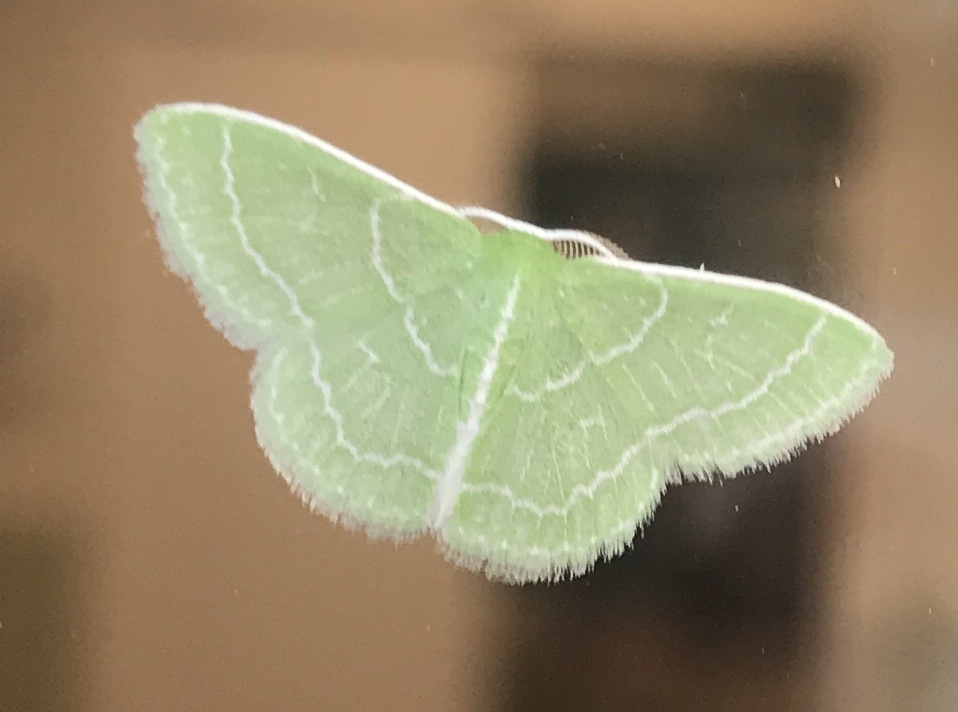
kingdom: Animalia
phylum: Arthropoda
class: Insecta
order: Lepidoptera
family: Geometridae
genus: Synchlora
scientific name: Synchlora aerata
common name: Wavy-lined emerald
